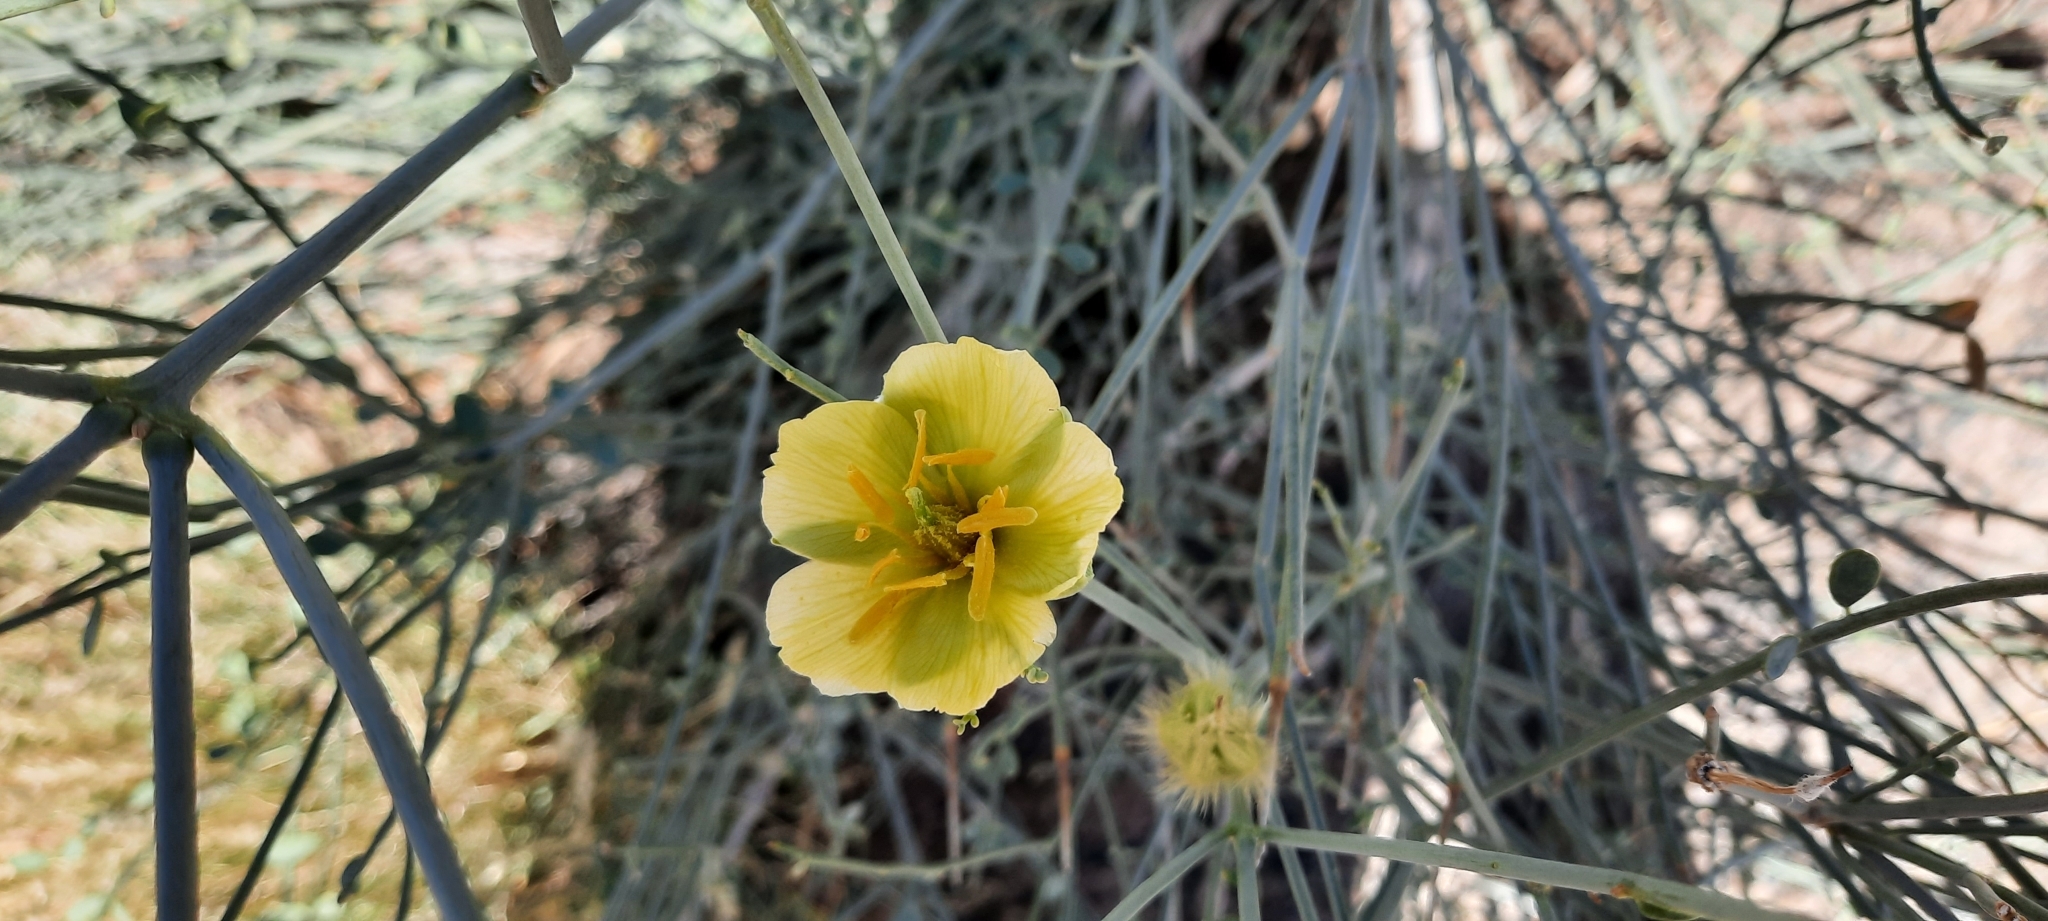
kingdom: Plantae
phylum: Tracheophyta
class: Magnoliopsida
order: Zygophyllales
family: Zygophyllaceae
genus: Sisyndite
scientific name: Sisyndite spartea
